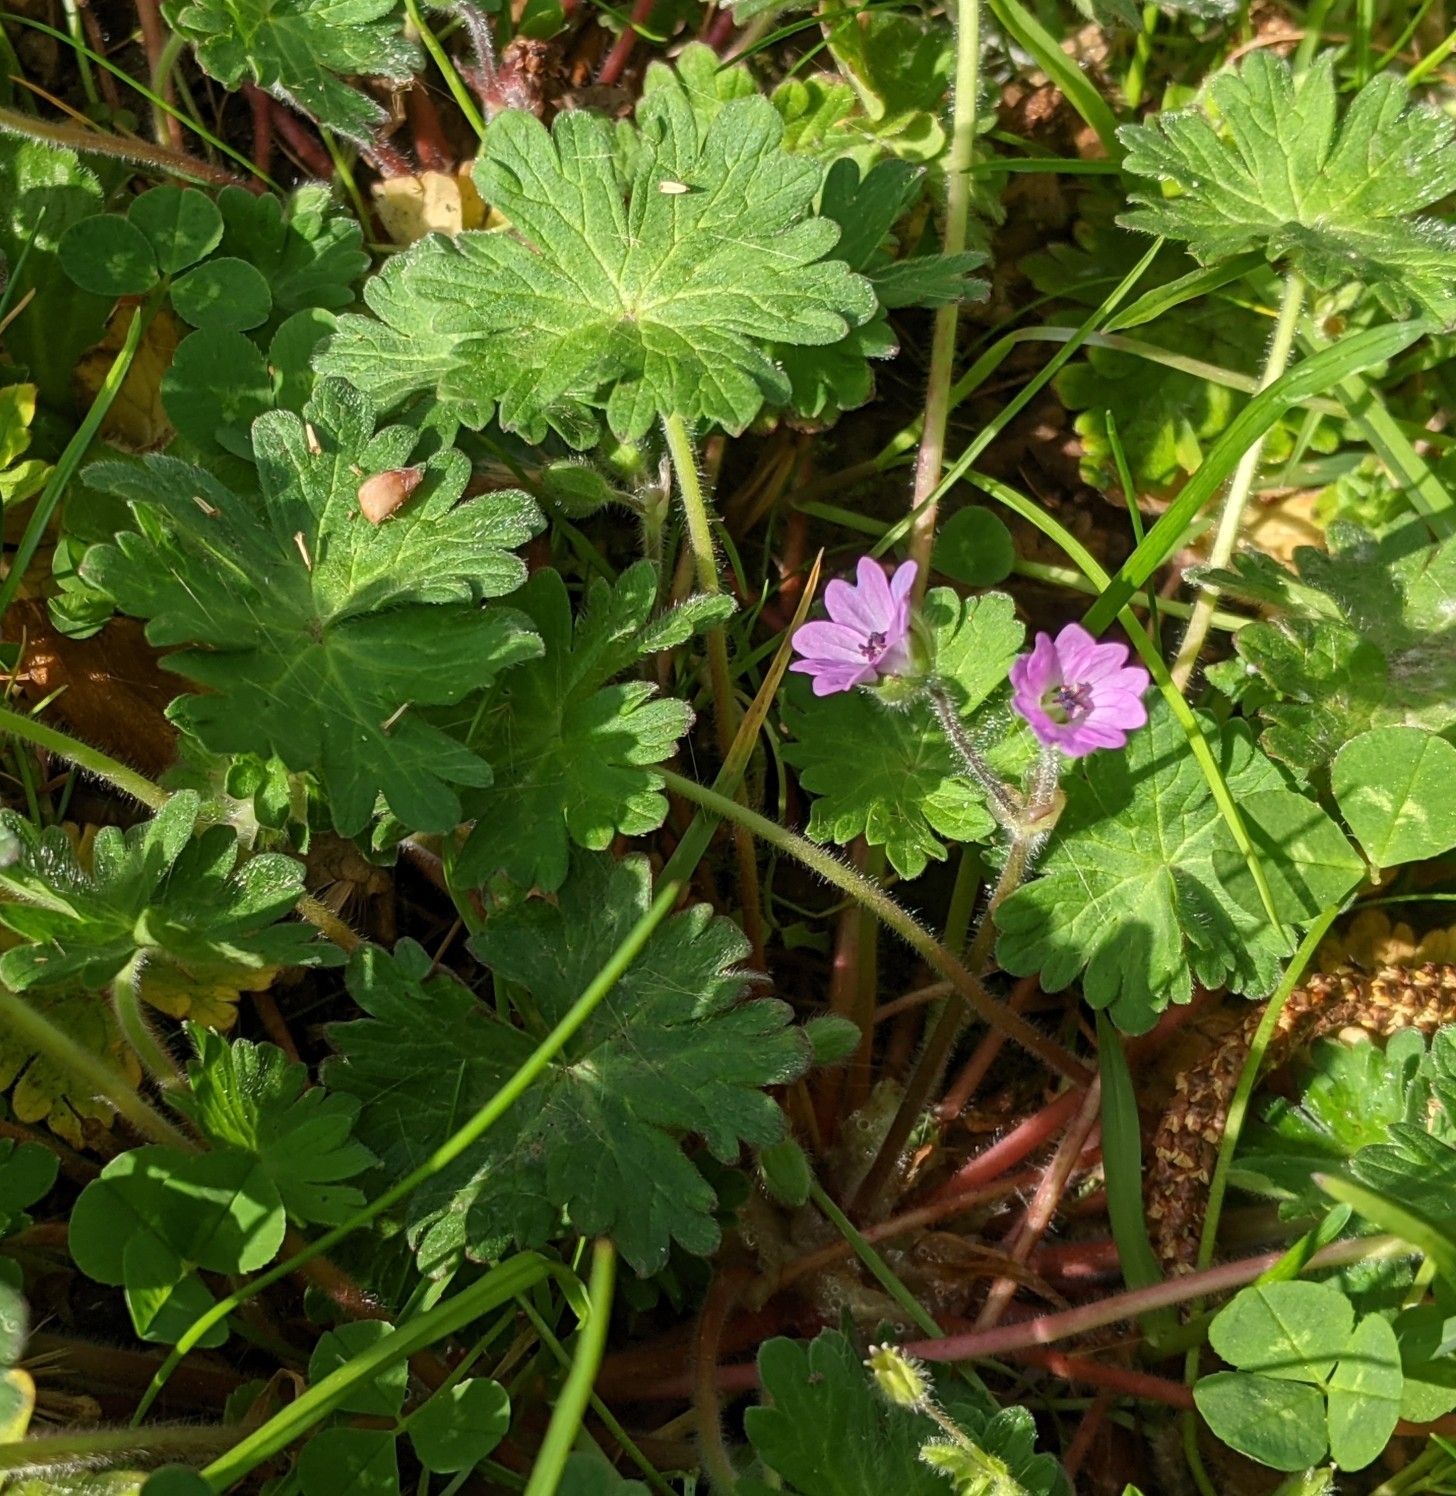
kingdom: Plantae
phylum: Tracheophyta
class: Magnoliopsida
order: Geraniales
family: Geraniaceae
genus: Geranium
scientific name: Geranium molle
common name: Dove's-foot crane's-bill
